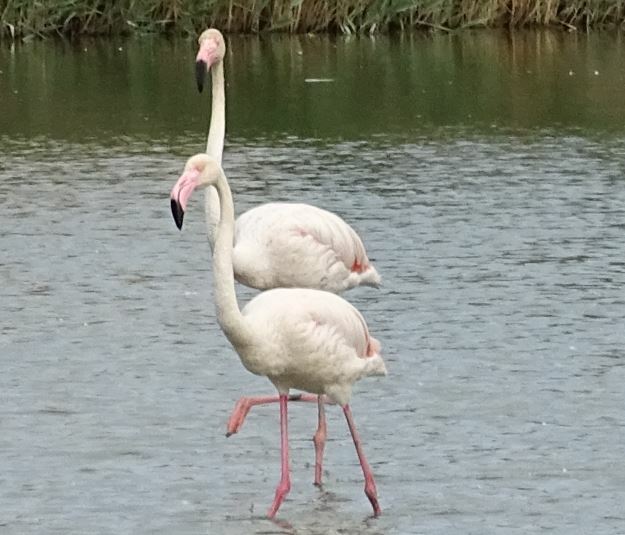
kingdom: Animalia
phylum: Chordata
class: Aves
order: Phoenicopteriformes
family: Phoenicopteridae
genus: Phoenicopterus
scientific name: Phoenicopterus roseus
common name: Greater flamingo
